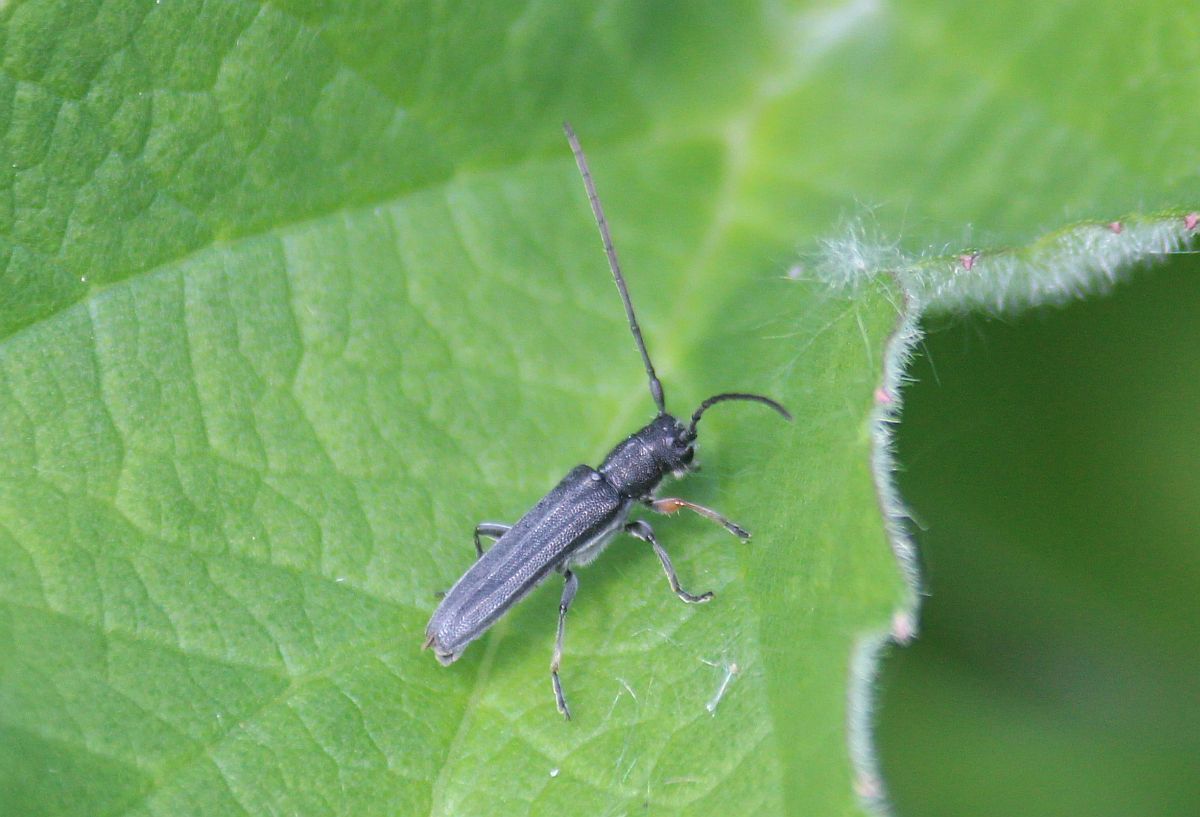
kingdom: Animalia
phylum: Arthropoda
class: Insecta
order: Coleoptera
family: Cerambycidae
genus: Phytoecia
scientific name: Phytoecia cylindrica
